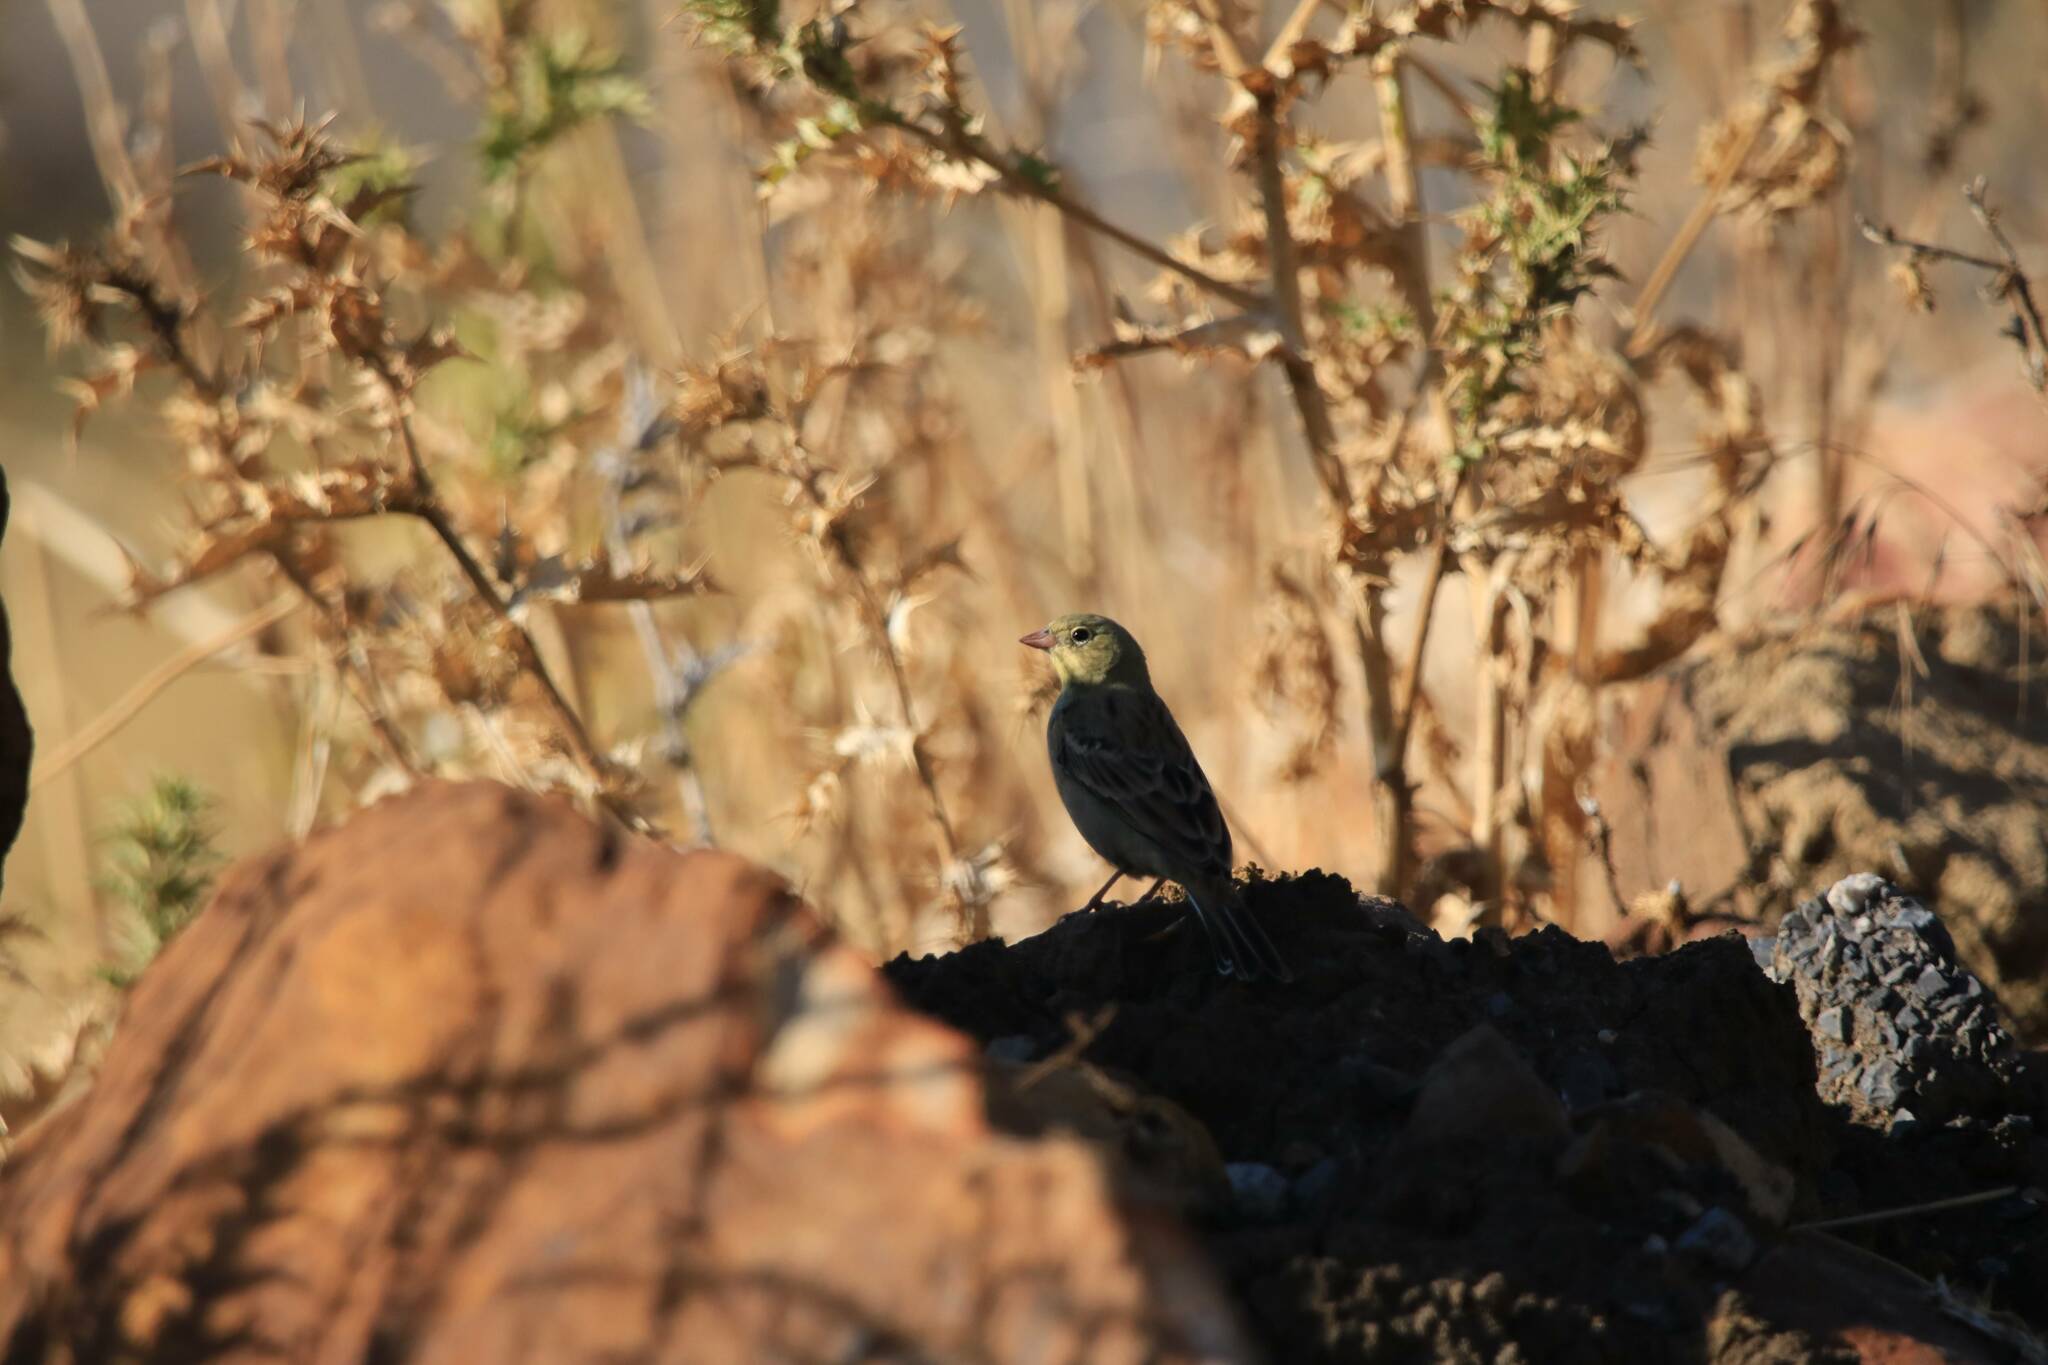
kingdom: Animalia
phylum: Chordata
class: Aves
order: Passeriformes
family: Emberizidae
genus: Emberiza
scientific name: Emberiza hortulana
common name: Ortolan bunting
